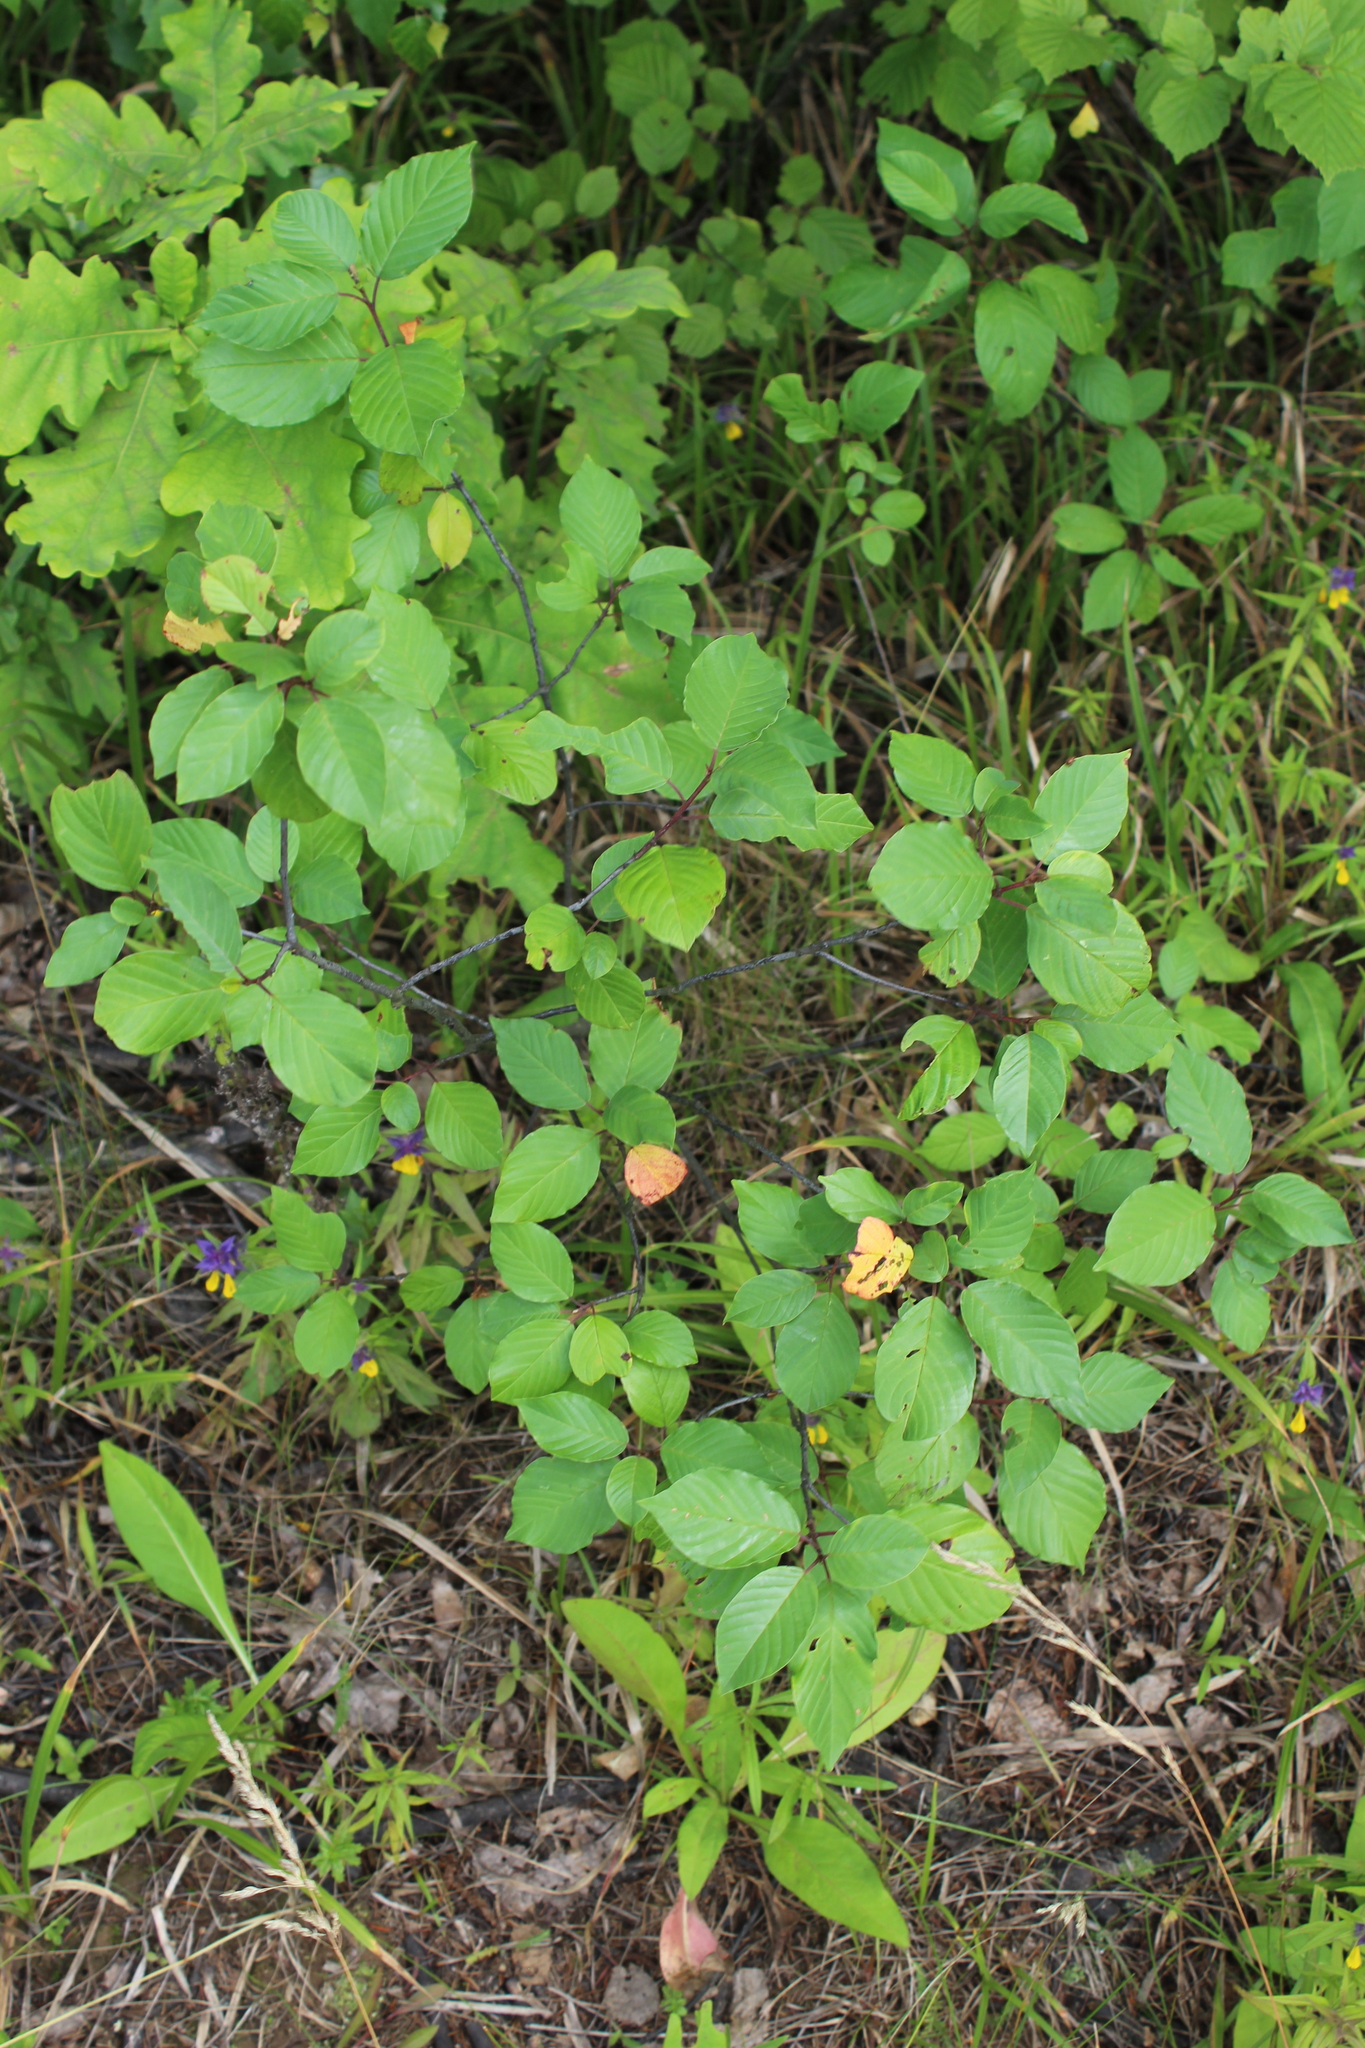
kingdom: Plantae
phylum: Tracheophyta
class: Magnoliopsida
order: Rosales
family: Rhamnaceae
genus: Frangula
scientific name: Frangula alnus
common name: Alder buckthorn
